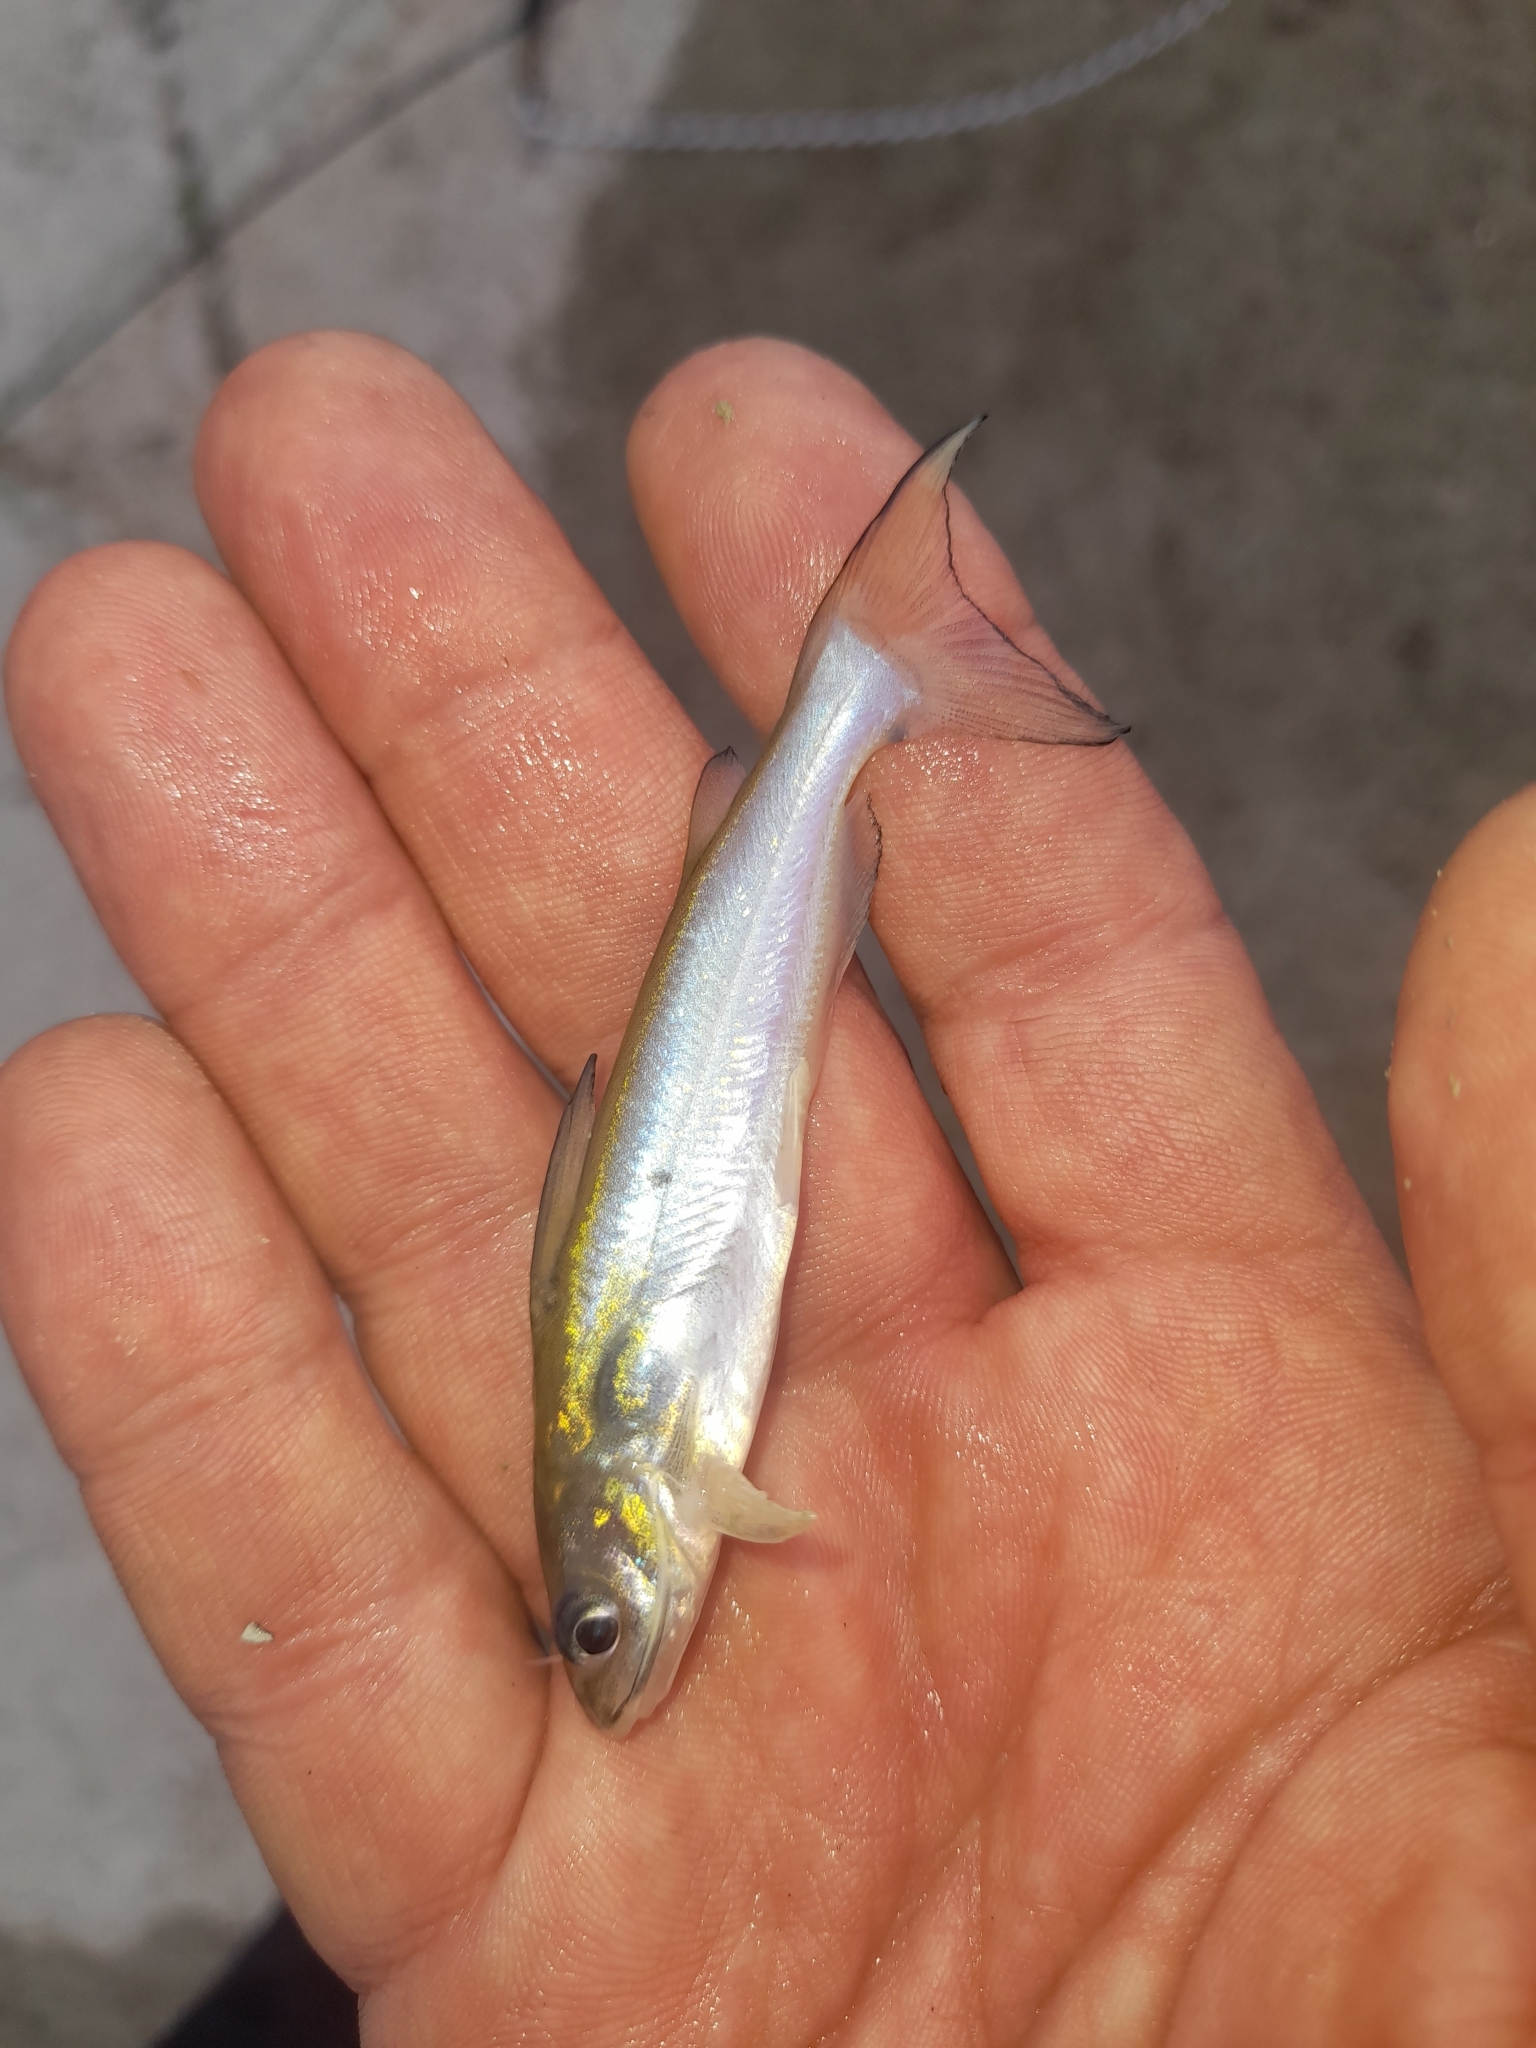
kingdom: Animalia
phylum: Chordata
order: Siluriformes
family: Ictaluridae
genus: Ictalurus
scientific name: Ictalurus punctatus
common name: Channel catfish
